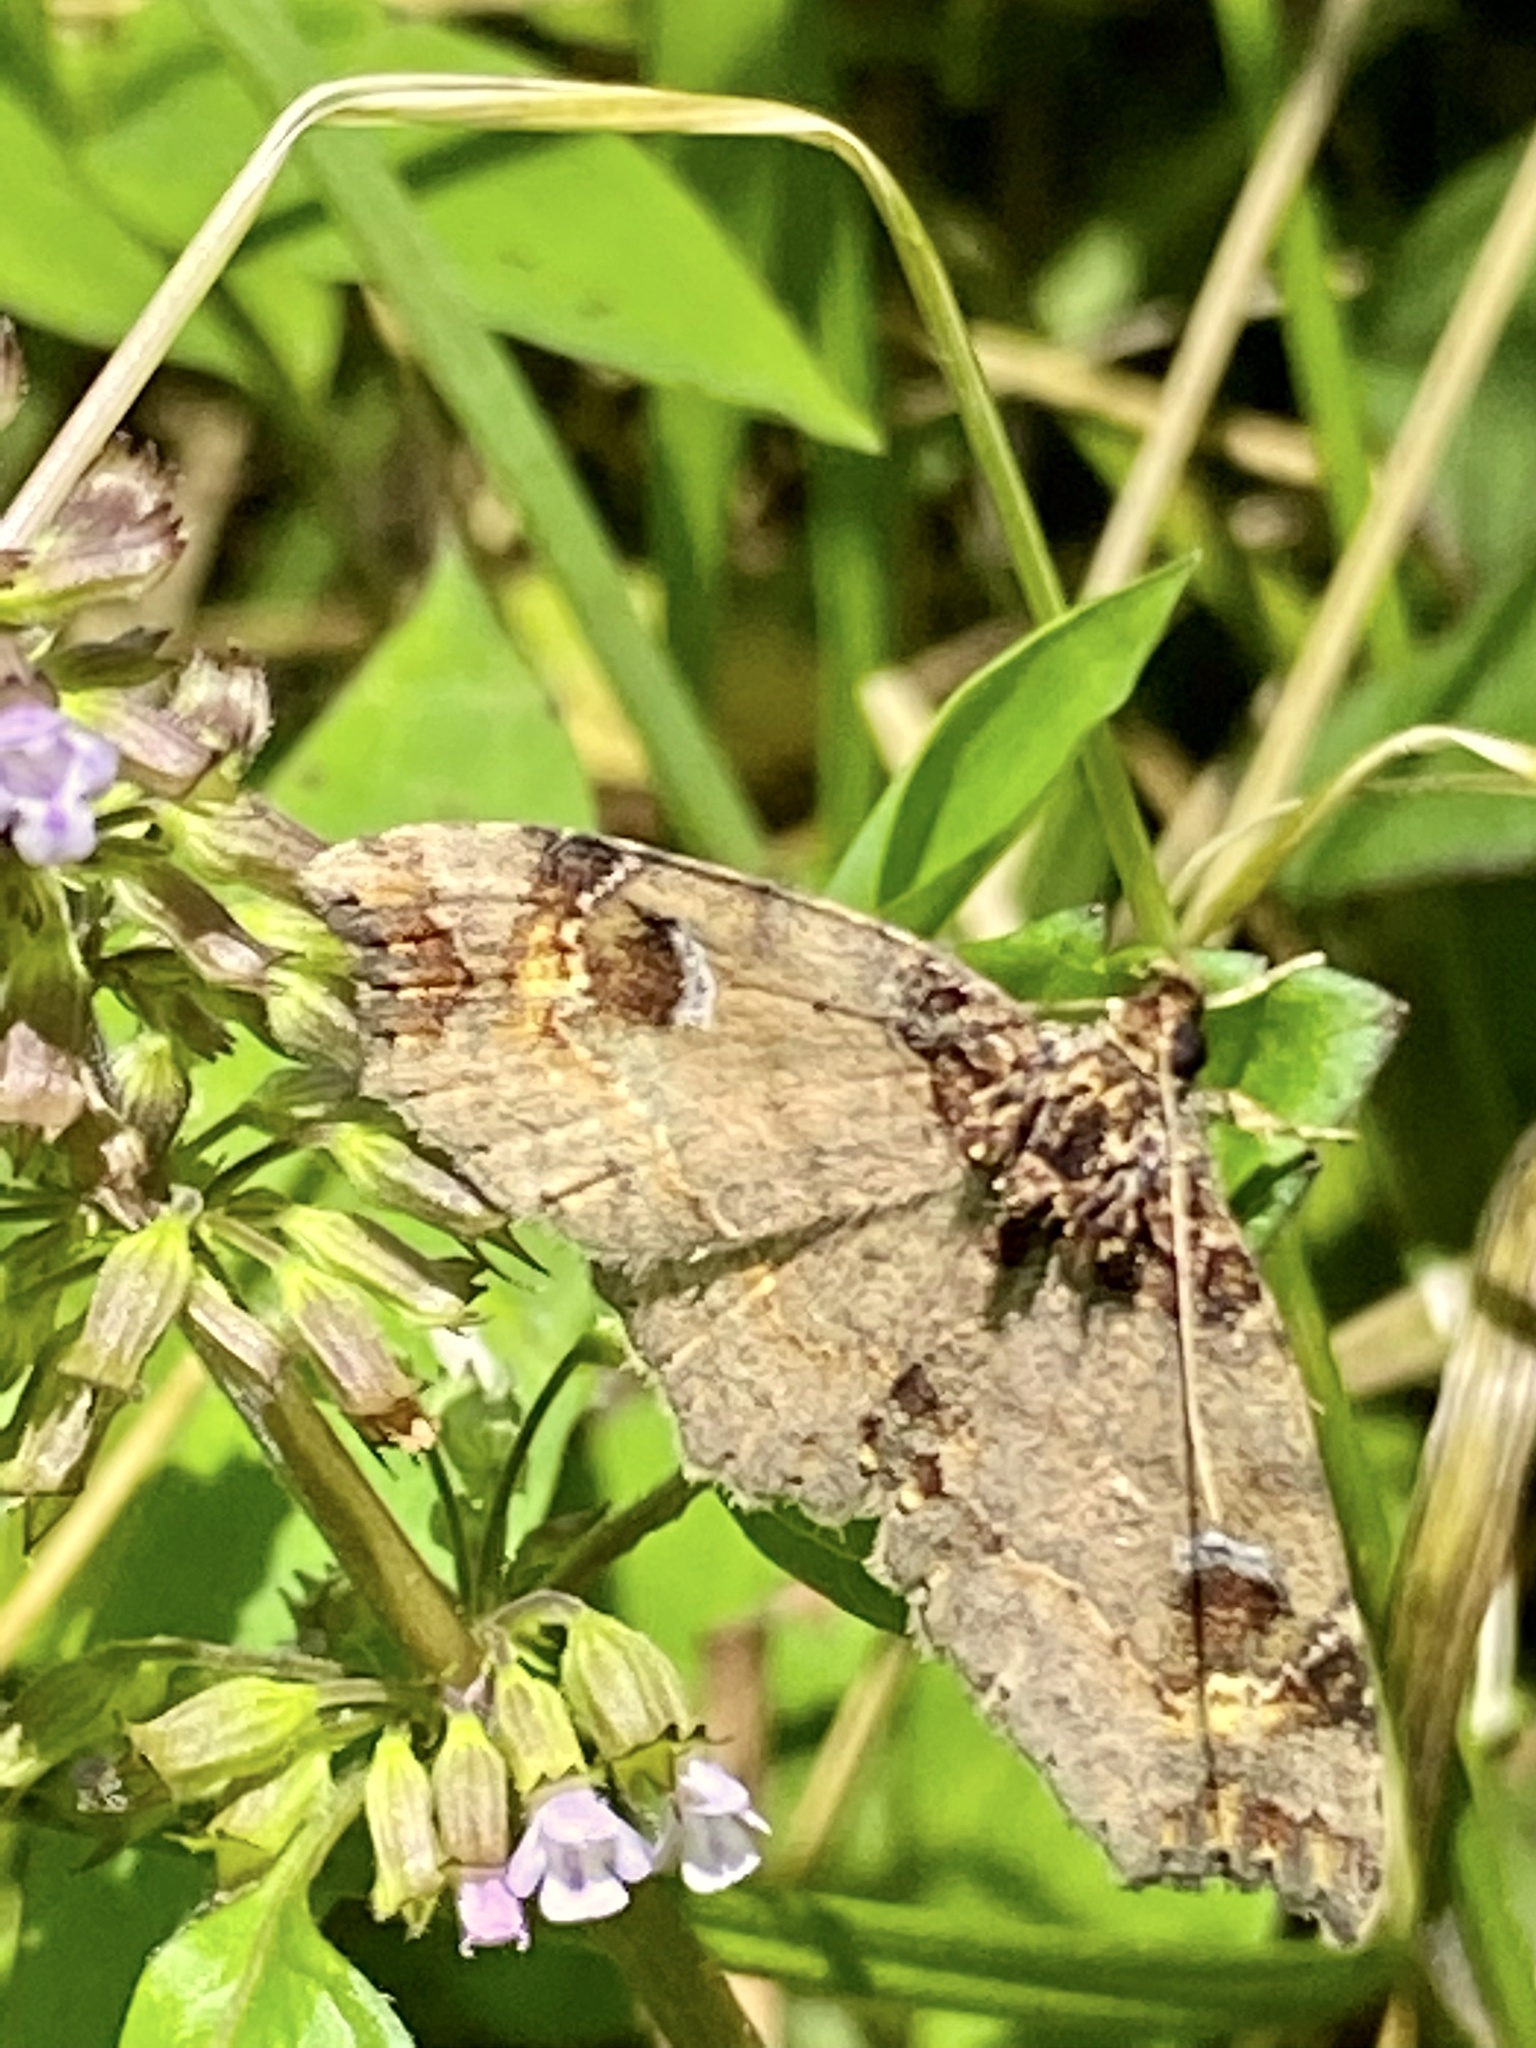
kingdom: Animalia
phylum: Arthropoda
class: Insecta
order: Lepidoptera
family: Erebidae
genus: Eugrapta
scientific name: Eugrapta igniflua
